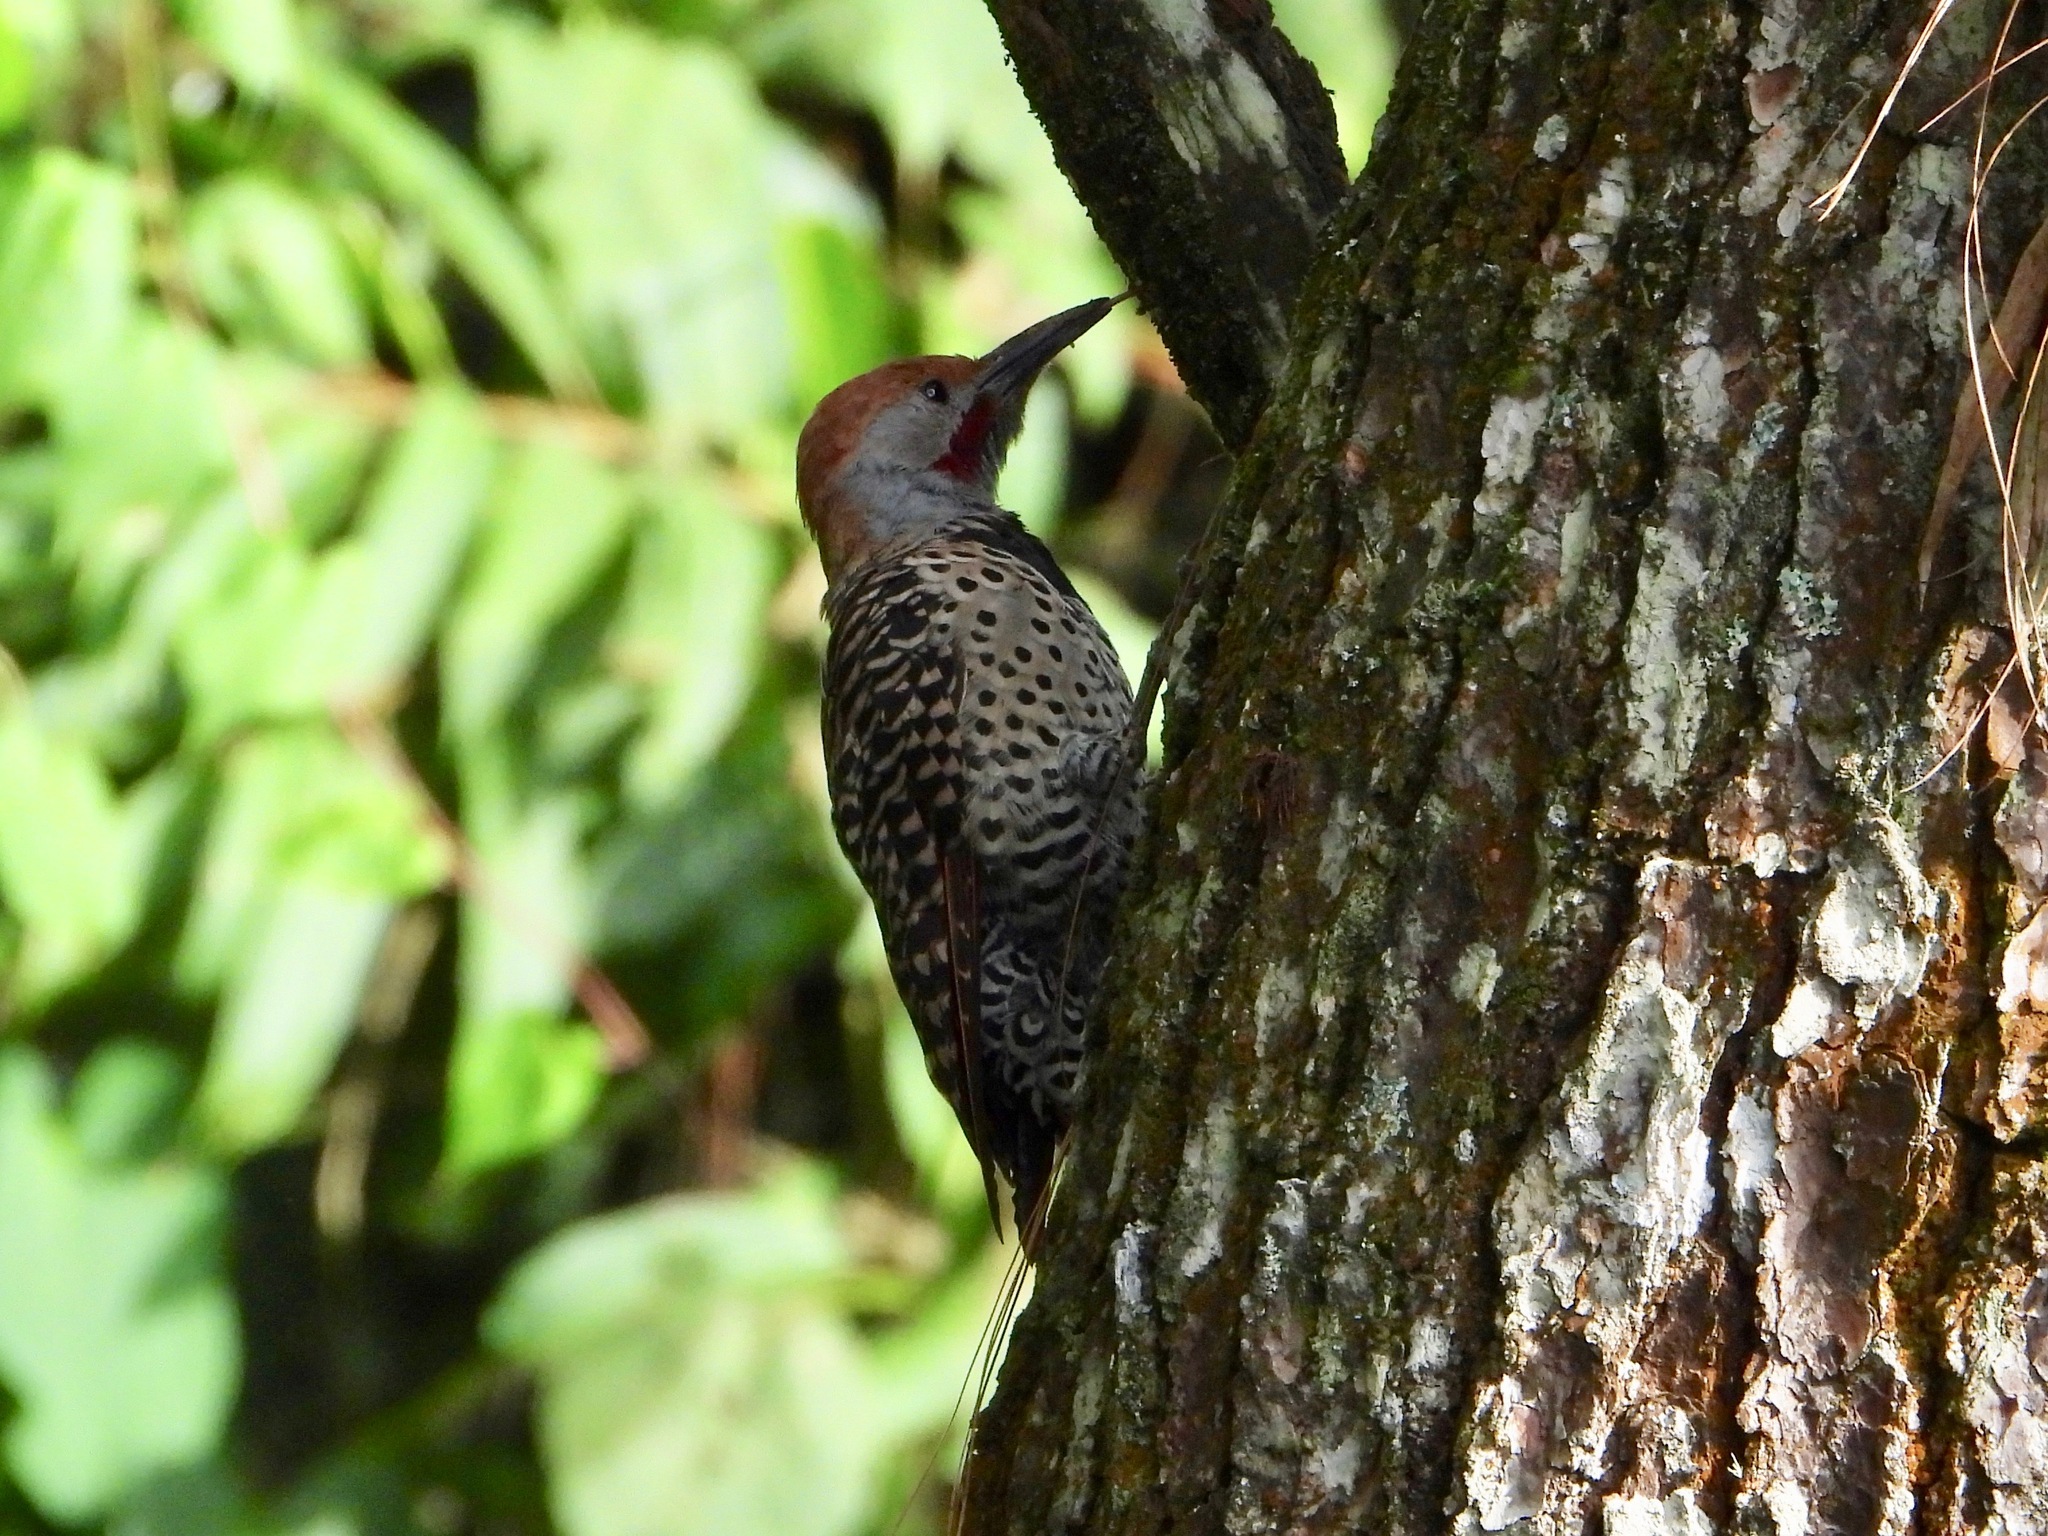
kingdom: Animalia
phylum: Chordata
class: Aves
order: Piciformes
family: Picidae
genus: Colaptes
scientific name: Colaptes auratus
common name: Northern flicker
